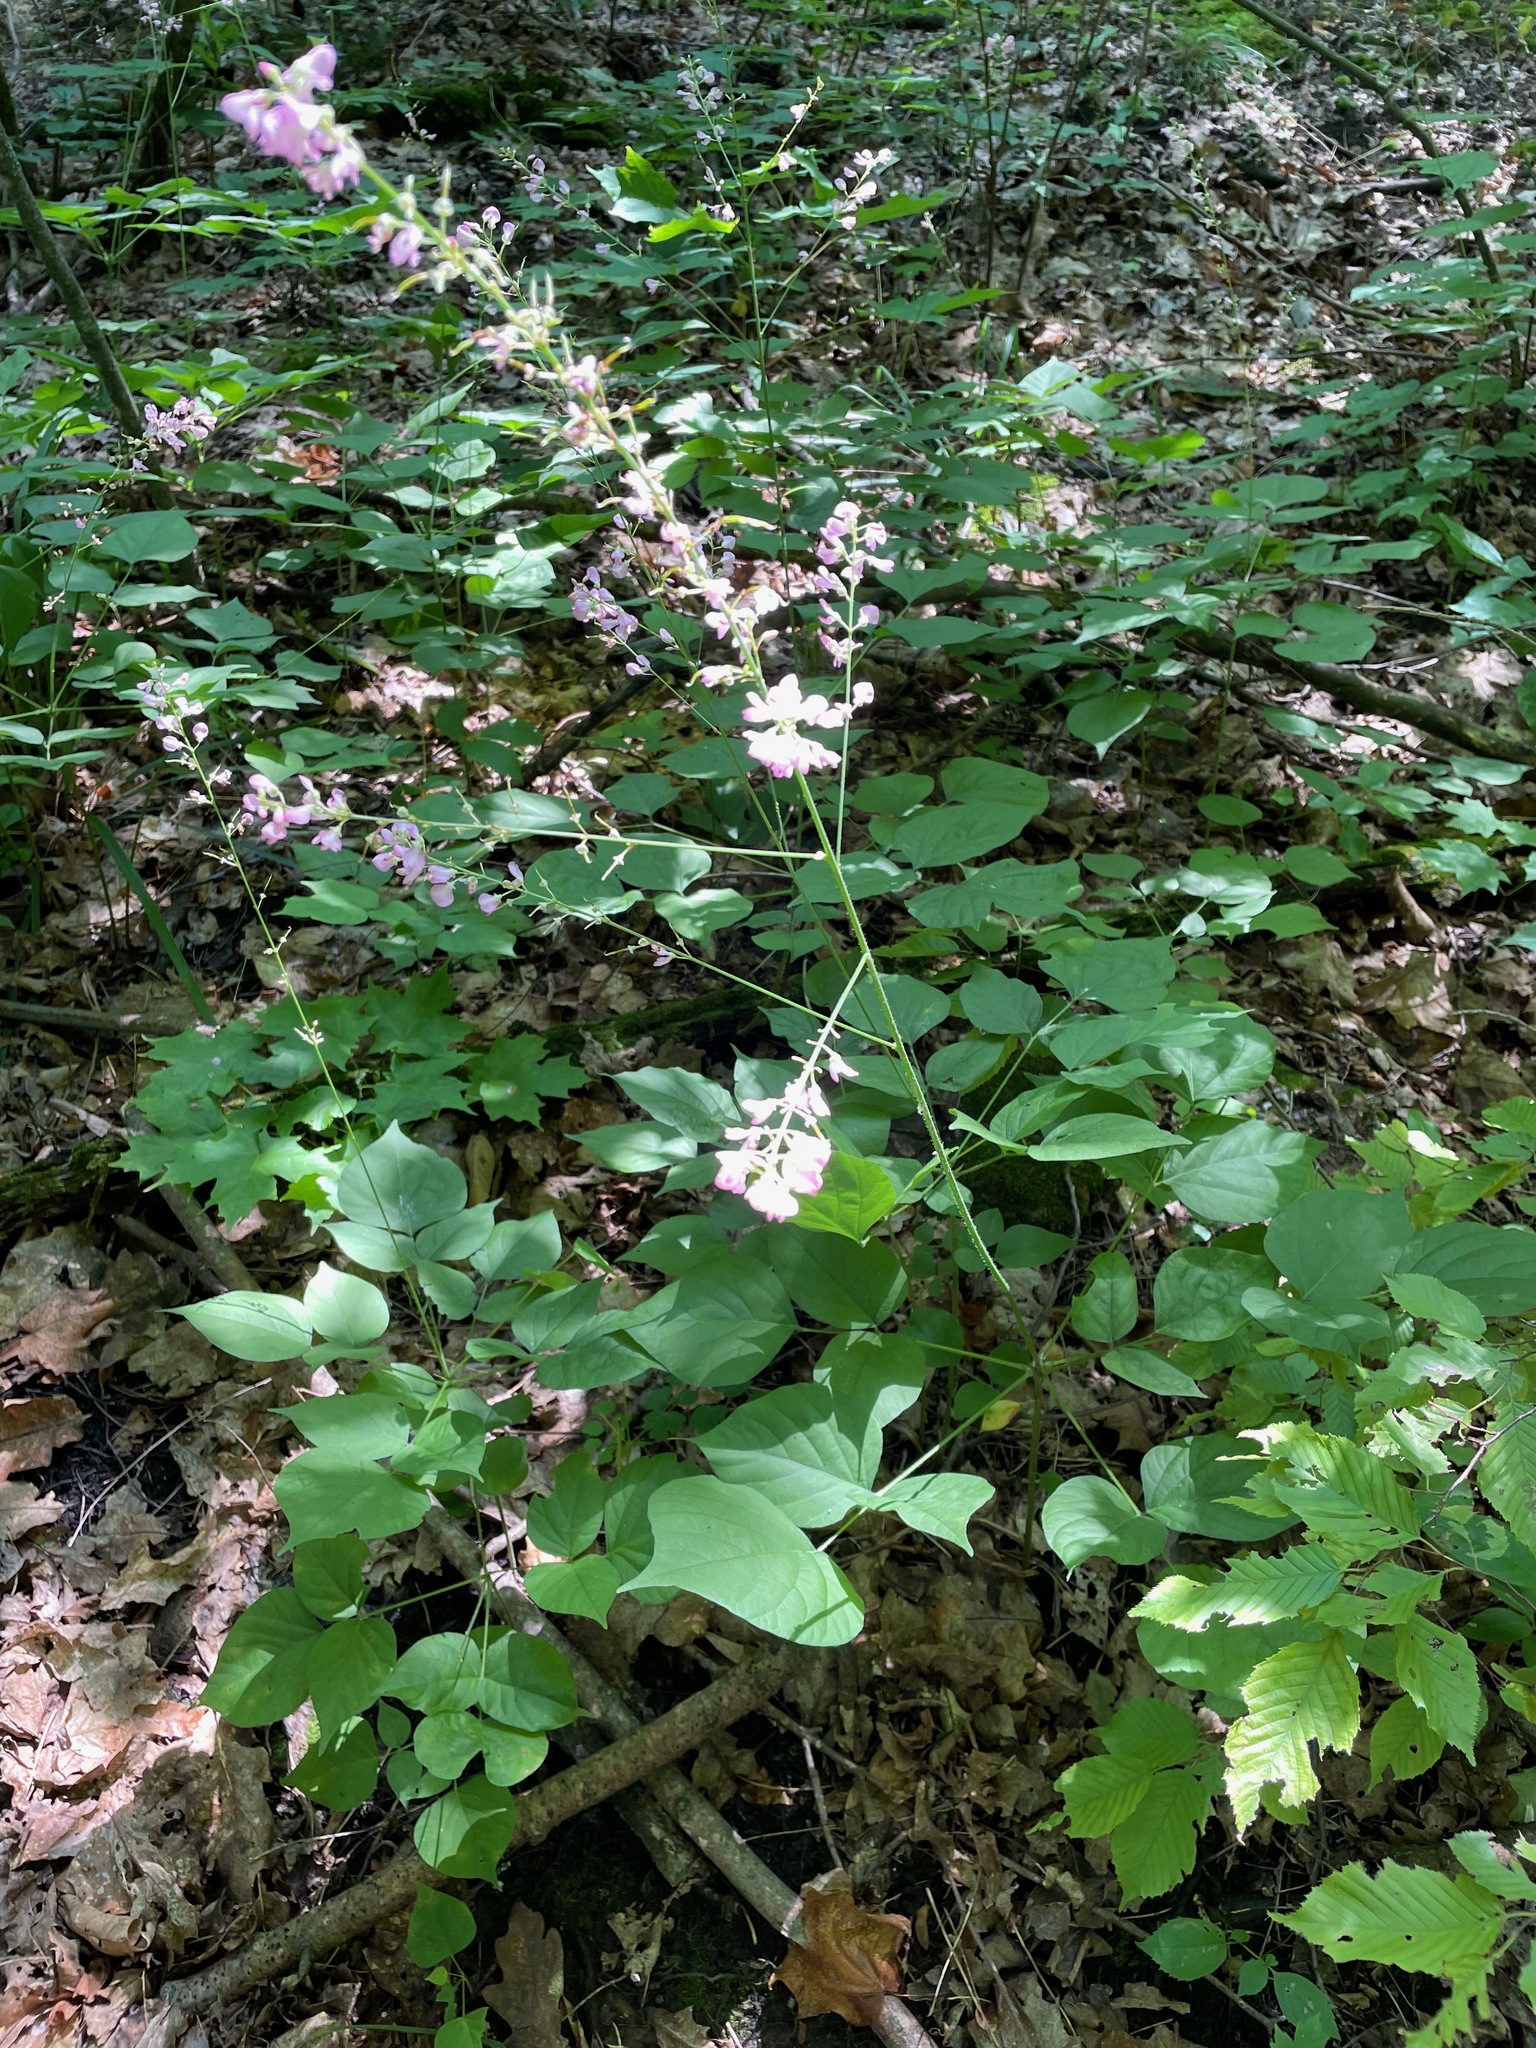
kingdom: Plantae
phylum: Tracheophyta
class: Magnoliopsida
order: Fabales
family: Fabaceae
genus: Hylodesmum
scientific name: Hylodesmum glutinosum
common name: Clustered-leaved tick-trefoil
